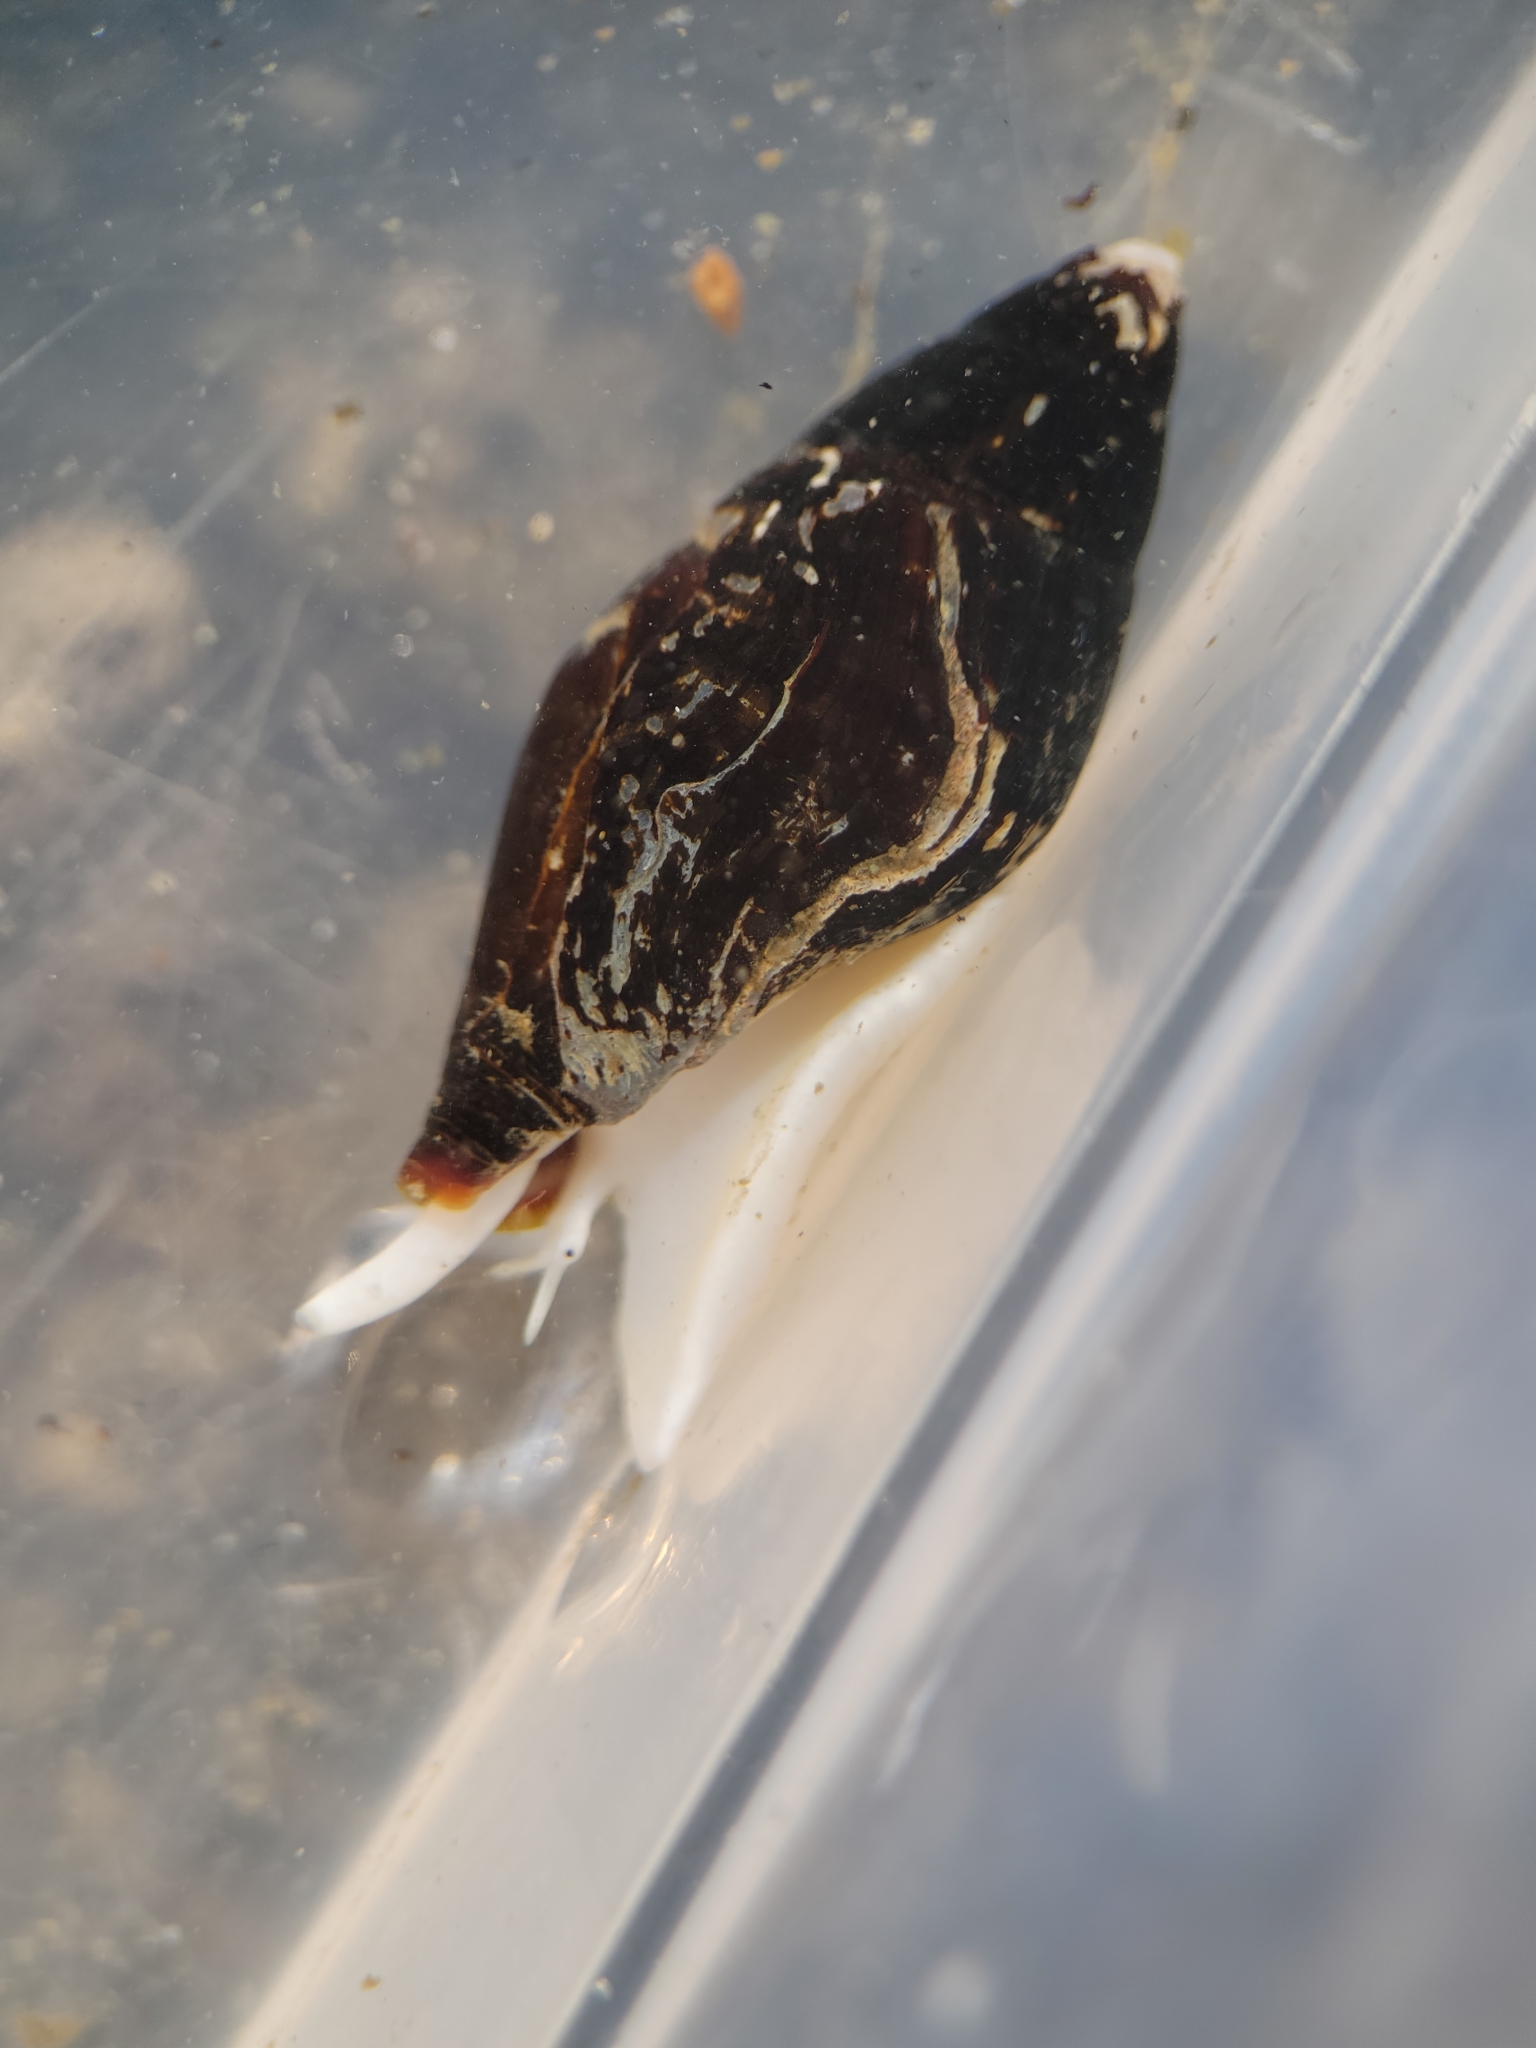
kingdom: Animalia
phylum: Mollusca
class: Gastropoda
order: Neogastropoda
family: Mitridae
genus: Atrimitra
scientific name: Atrimitra idae
